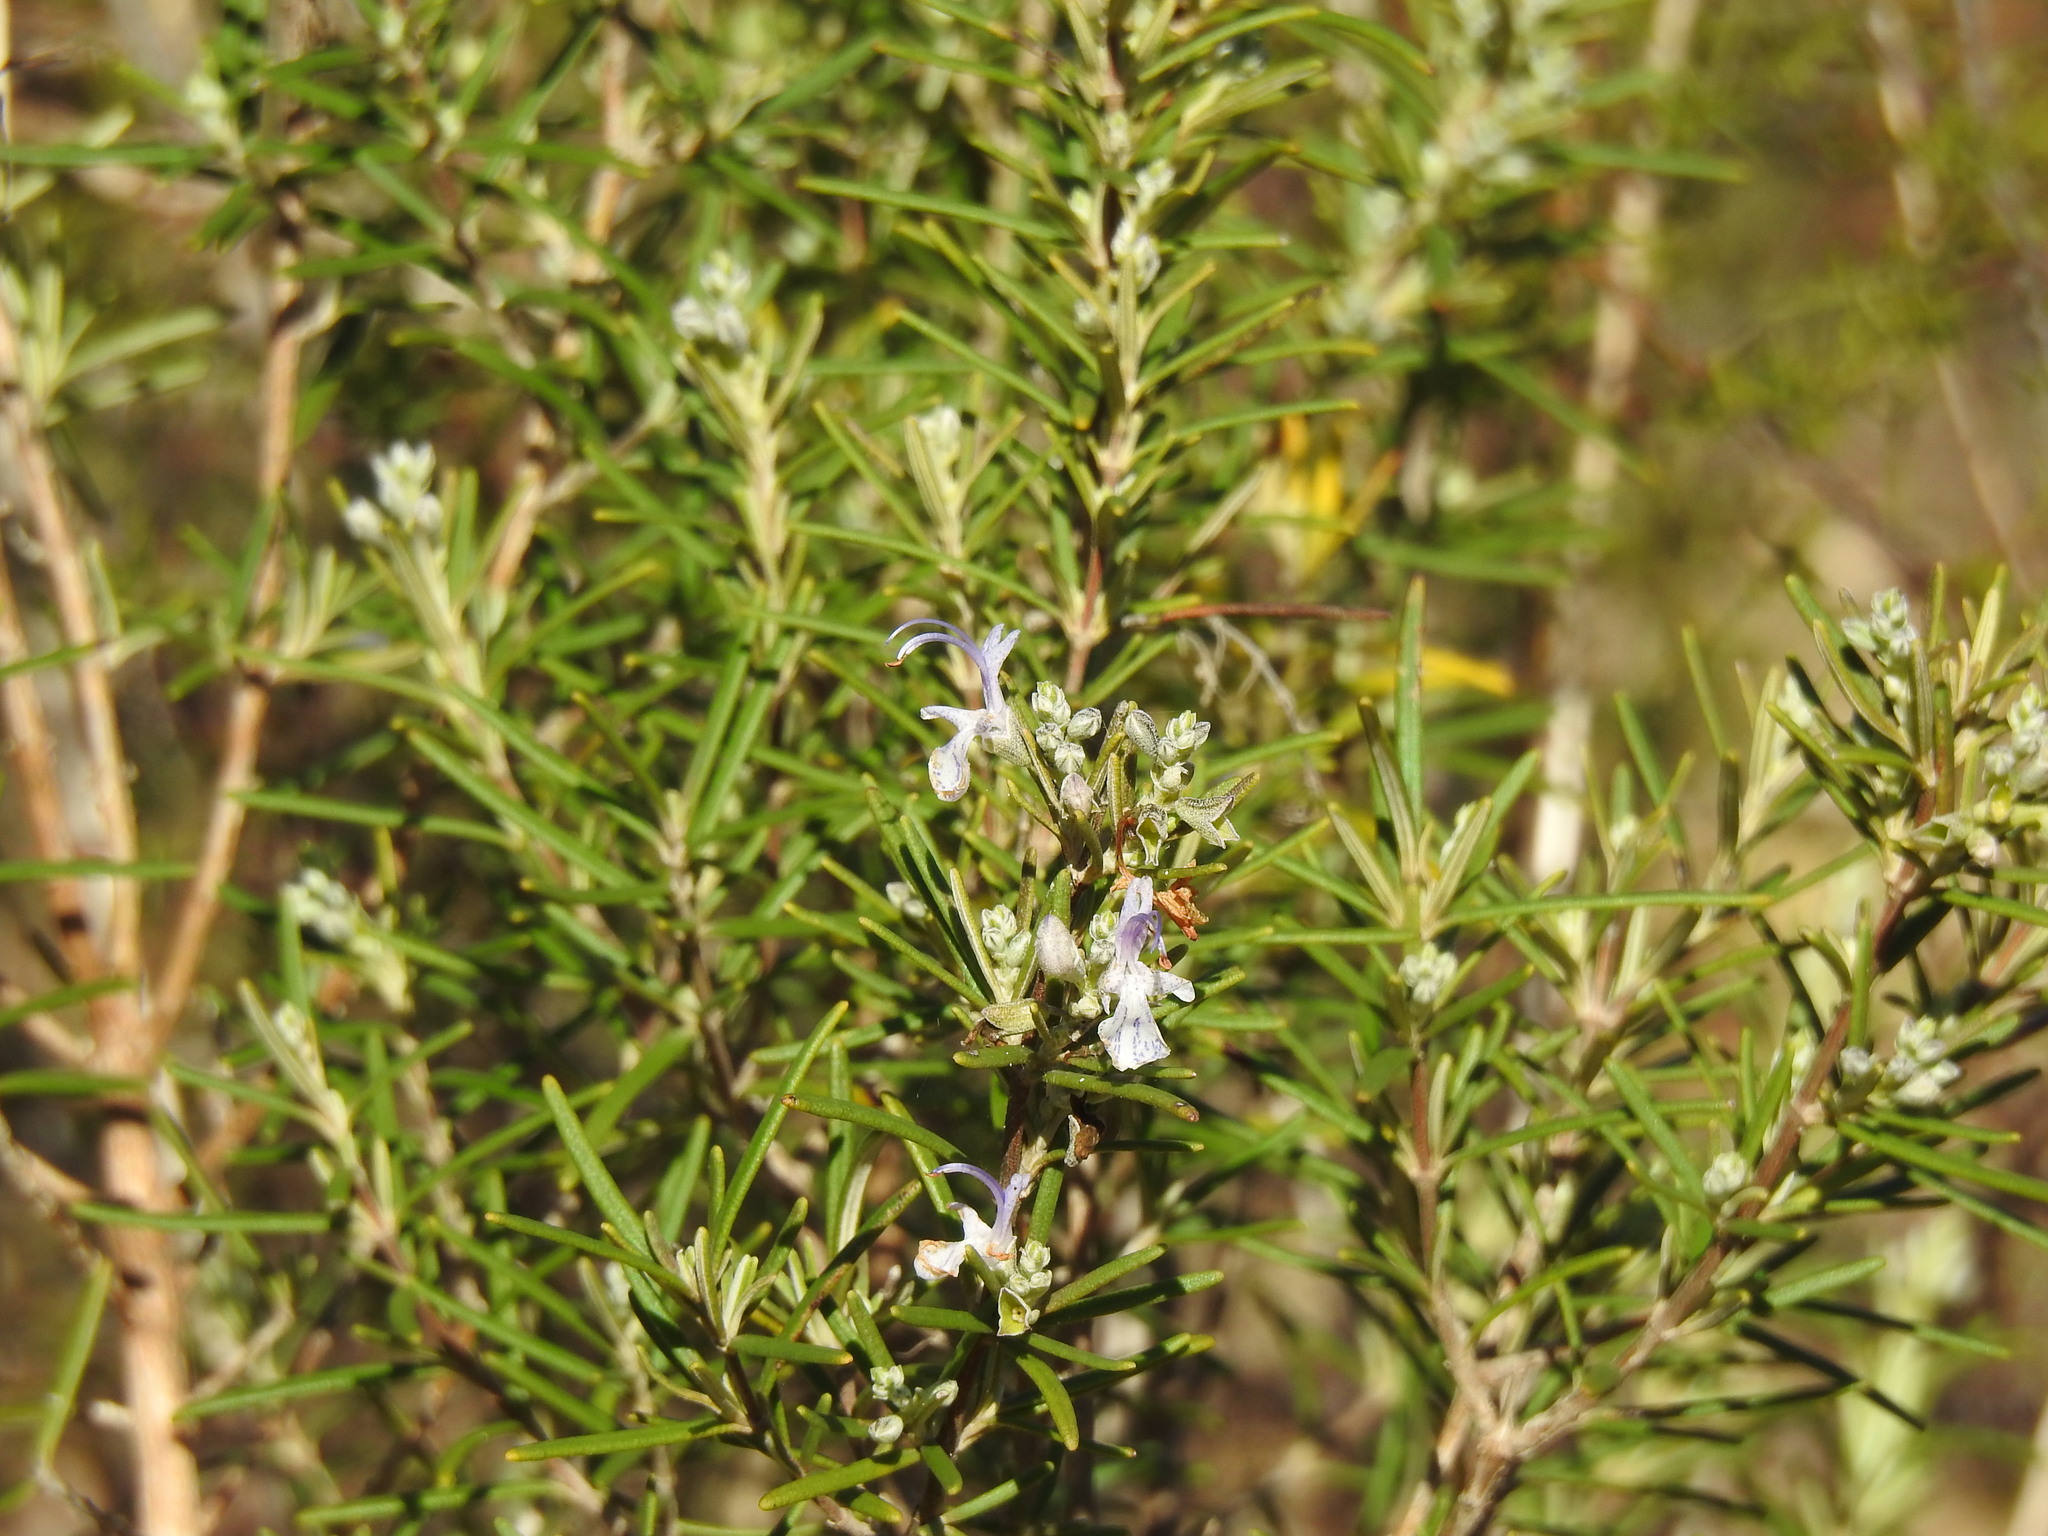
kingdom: Plantae
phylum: Tracheophyta
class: Magnoliopsida
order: Lamiales
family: Lamiaceae
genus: Salvia
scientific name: Salvia rosmarinus
